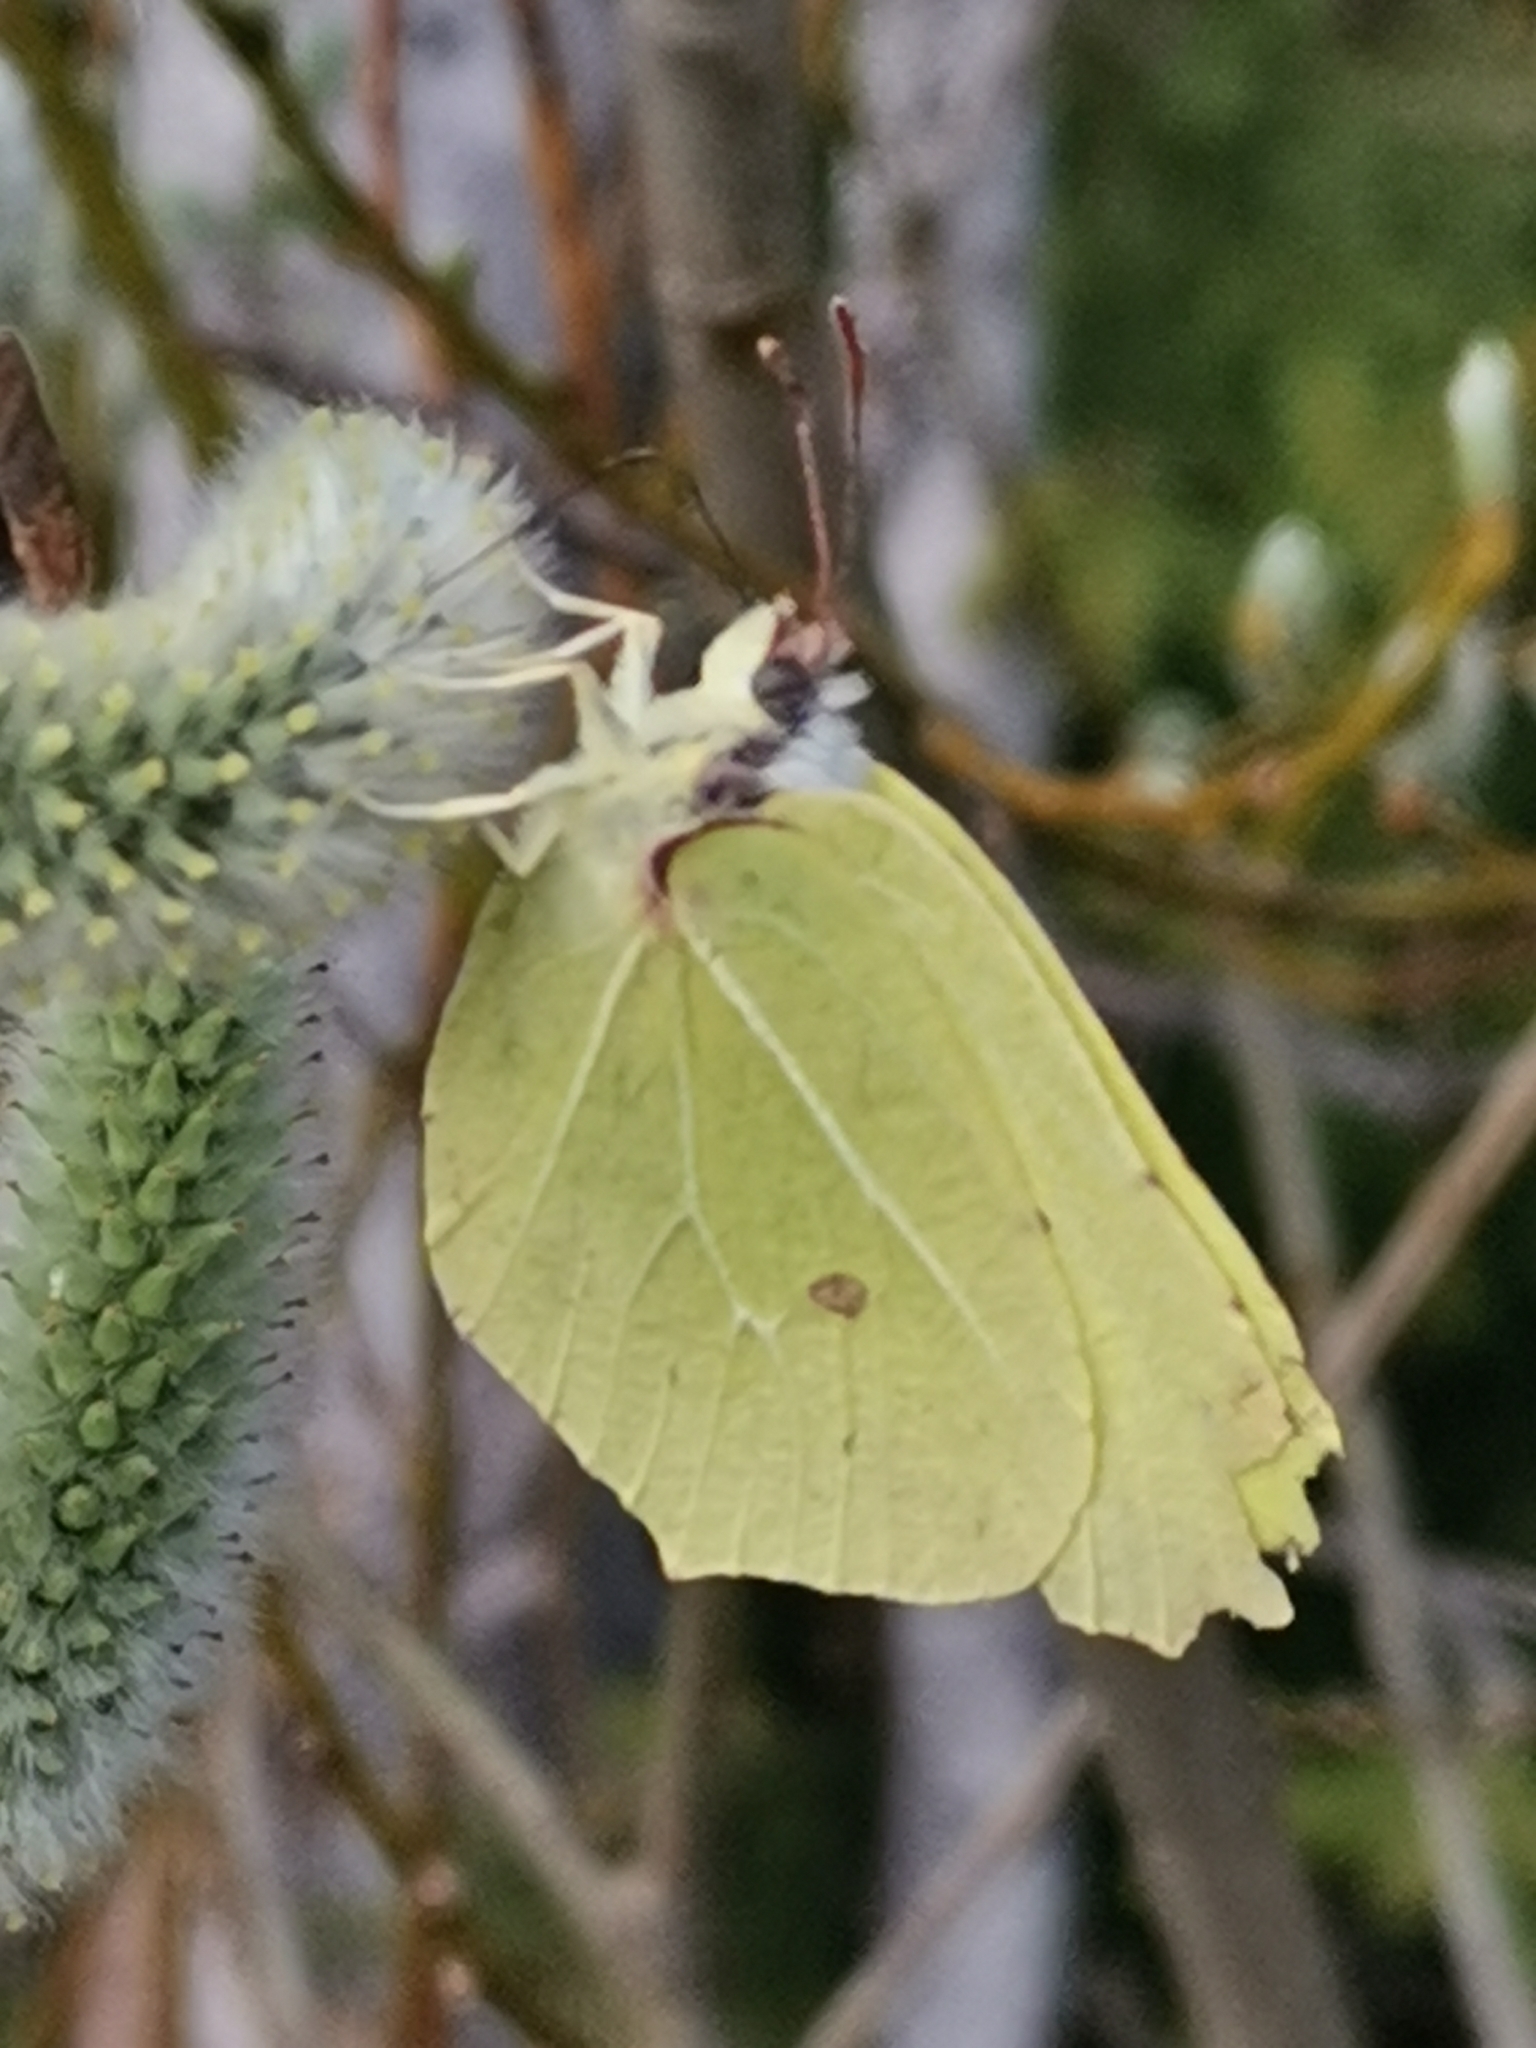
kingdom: Animalia
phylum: Arthropoda
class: Insecta
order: Lepidoptera
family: Pieridae
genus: Gonepteryx
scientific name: Gonepteryx rhamni
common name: Brimstone
